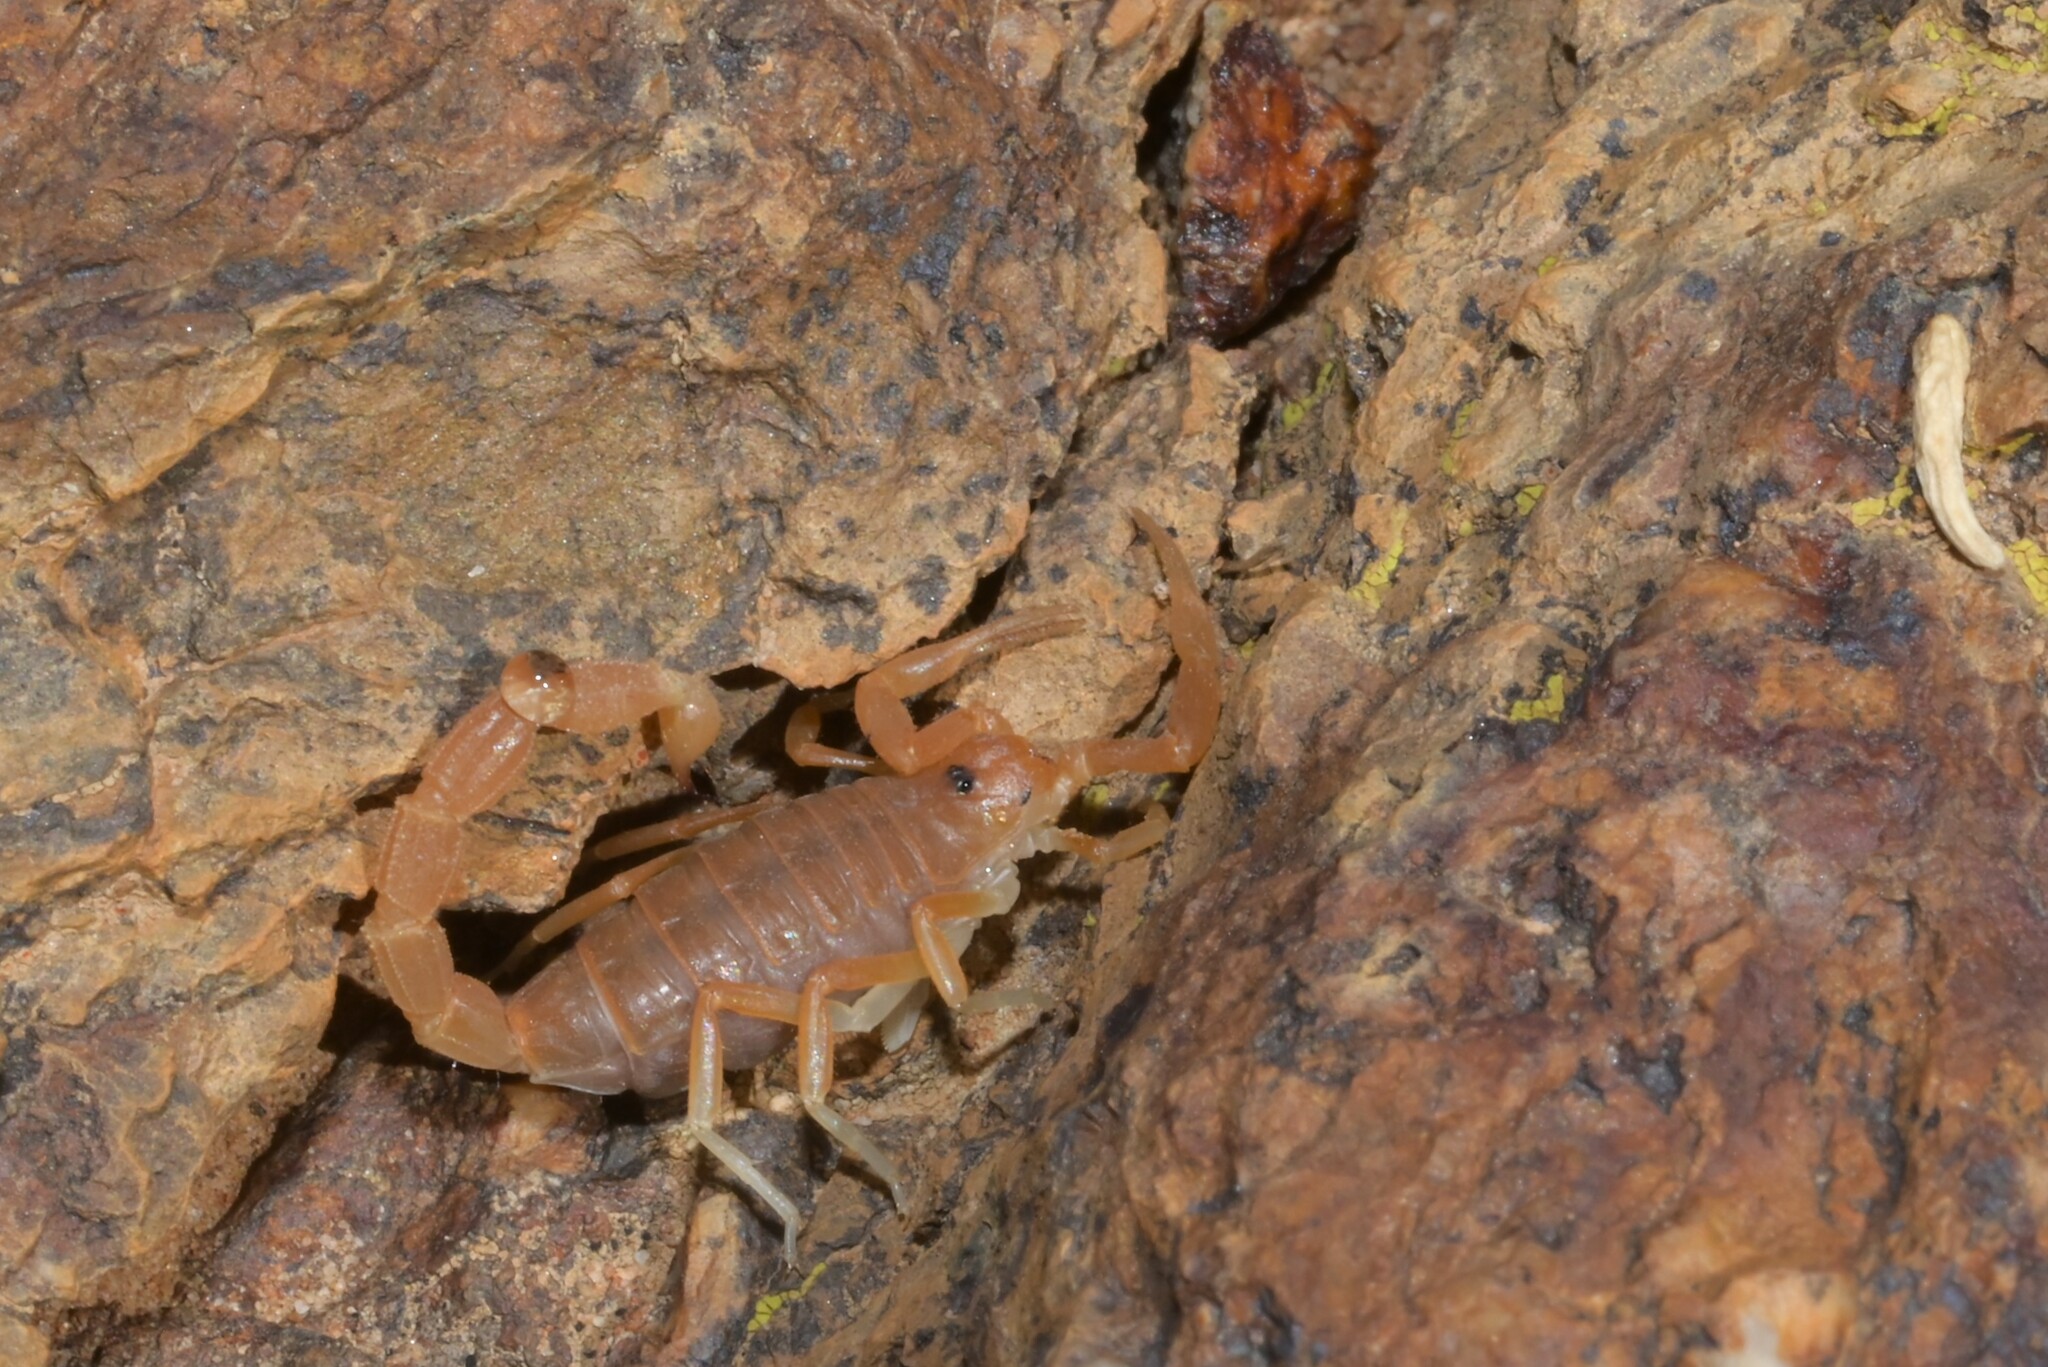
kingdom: Animalia
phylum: Arthropoda
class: Arachnida
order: Scorpiones
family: Buthidae
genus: Parabuthus
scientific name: Parabuthus planicauda
